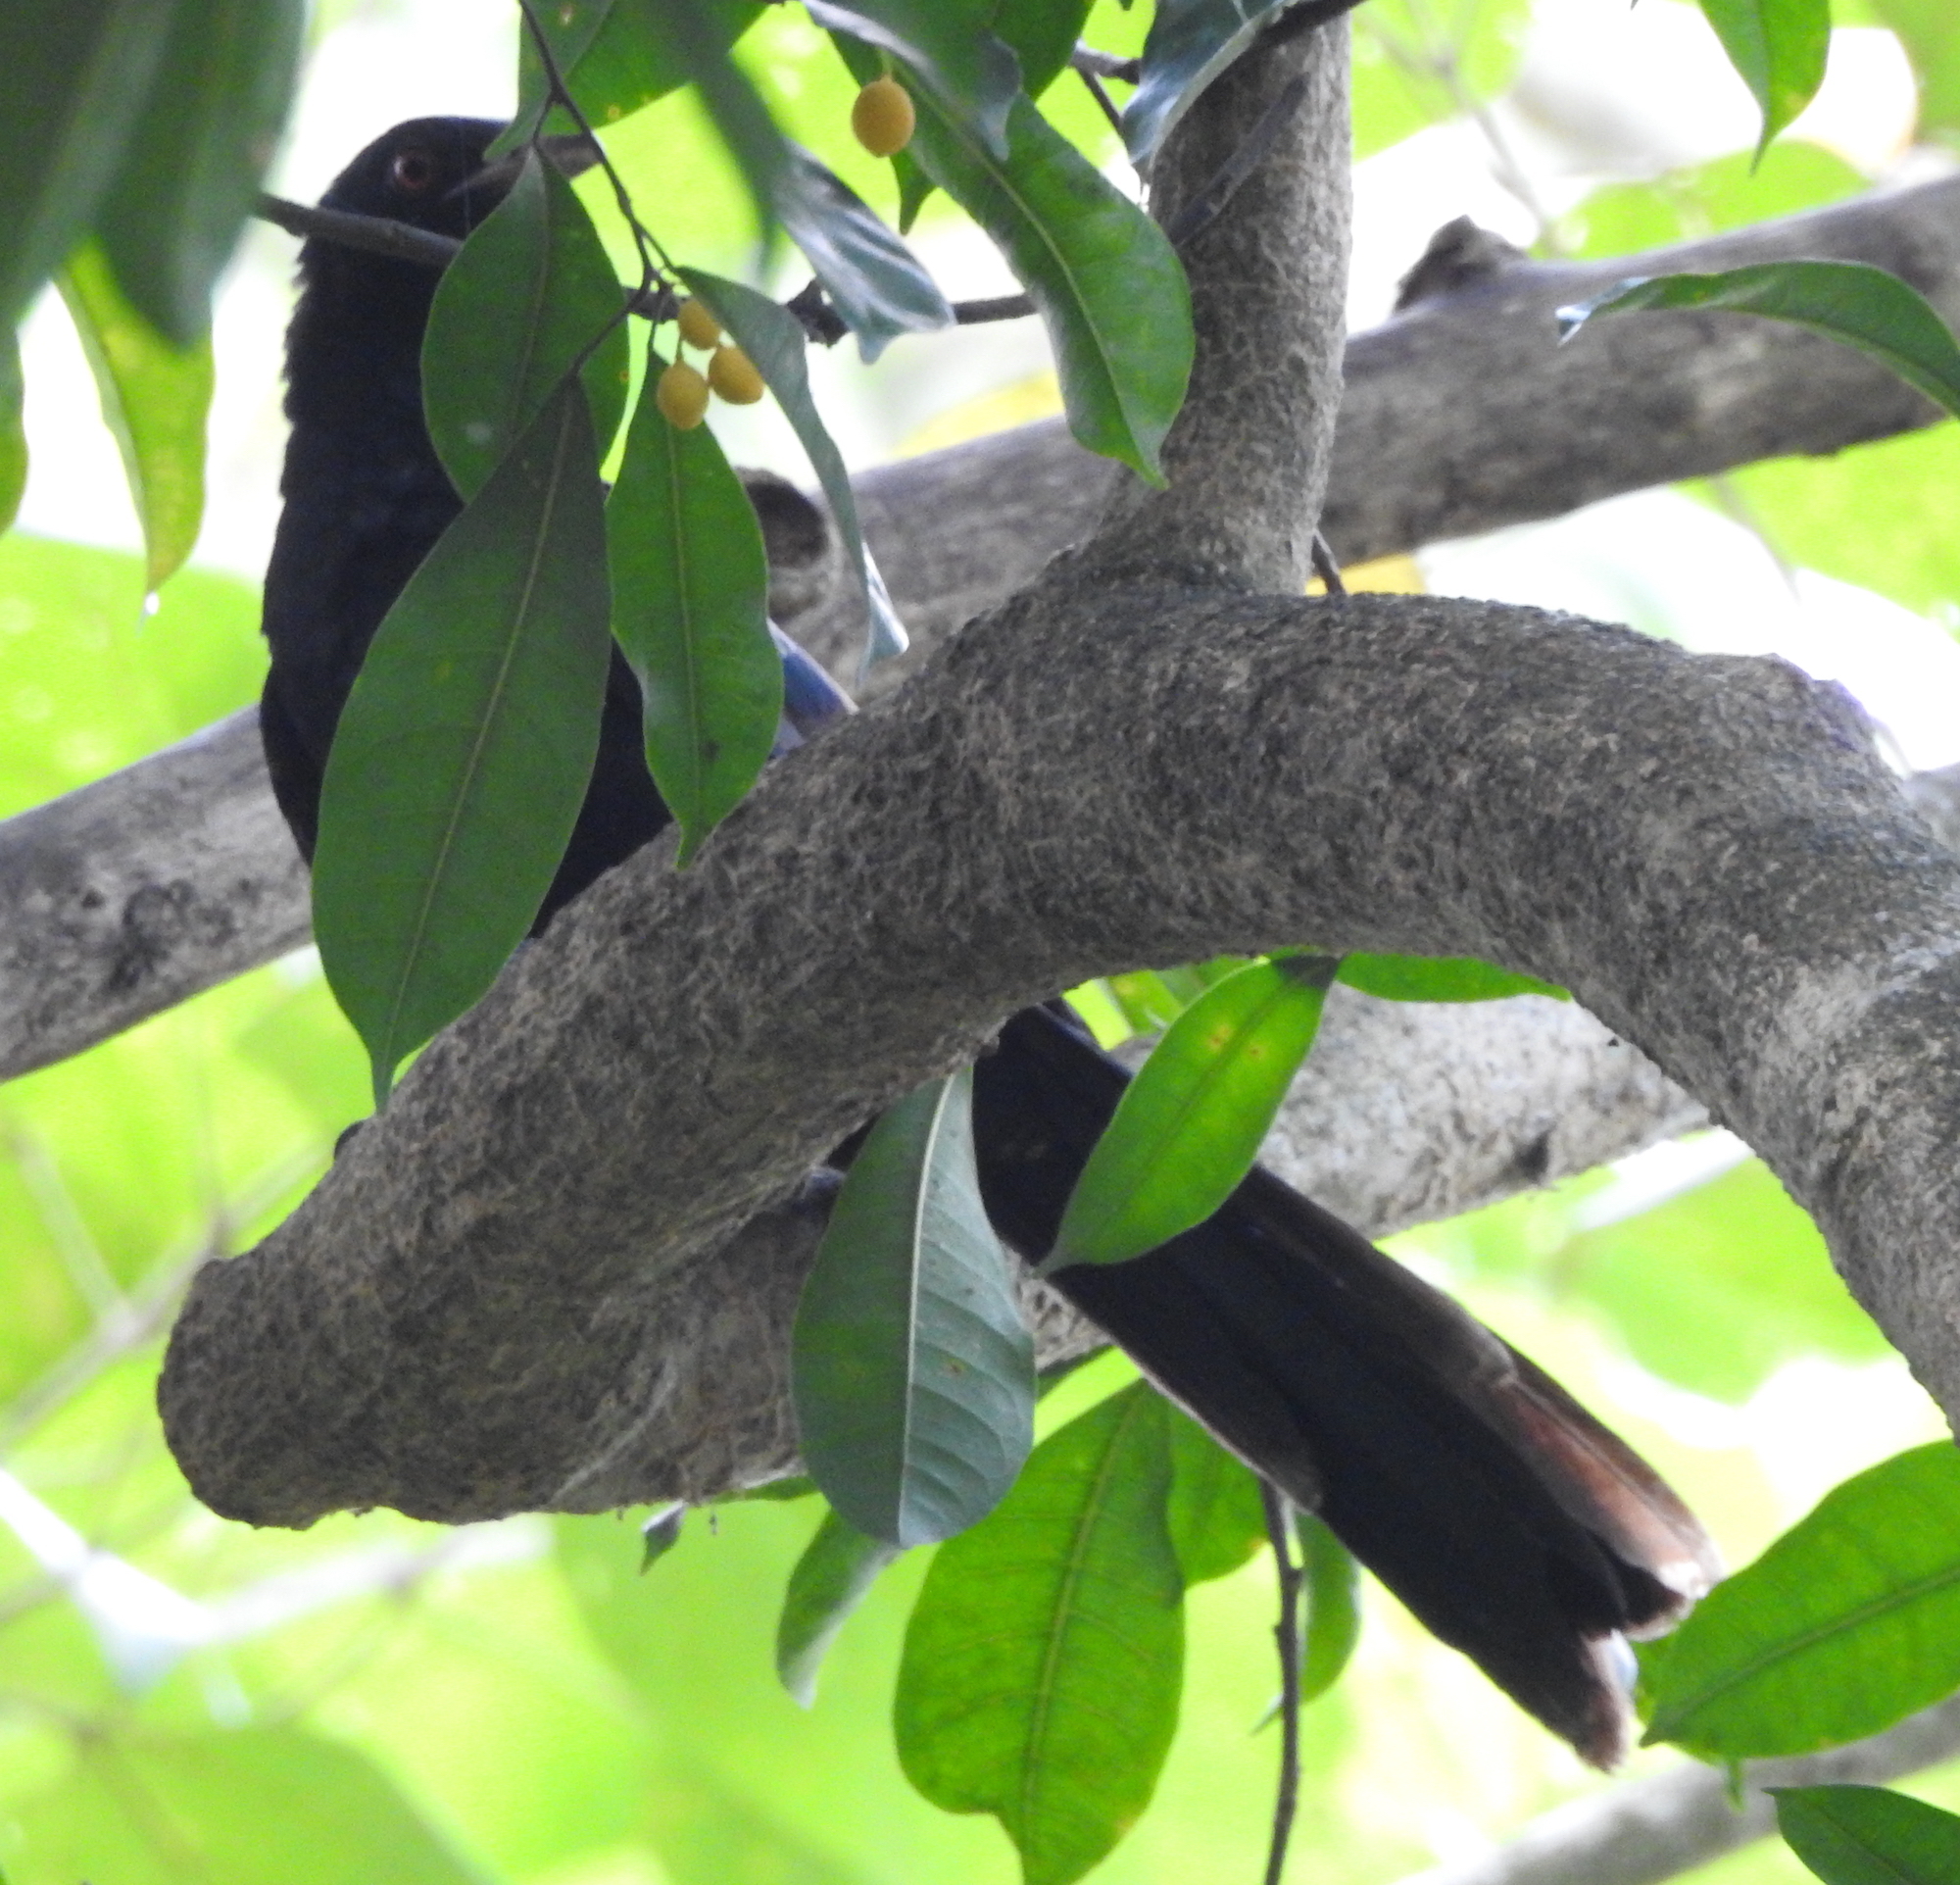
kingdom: Animalia
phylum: Chordata
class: Aves
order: Cuculiformes
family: Cuculidae
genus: Eudynamys
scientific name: Eudynamys scolopaceus
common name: Asian koel
